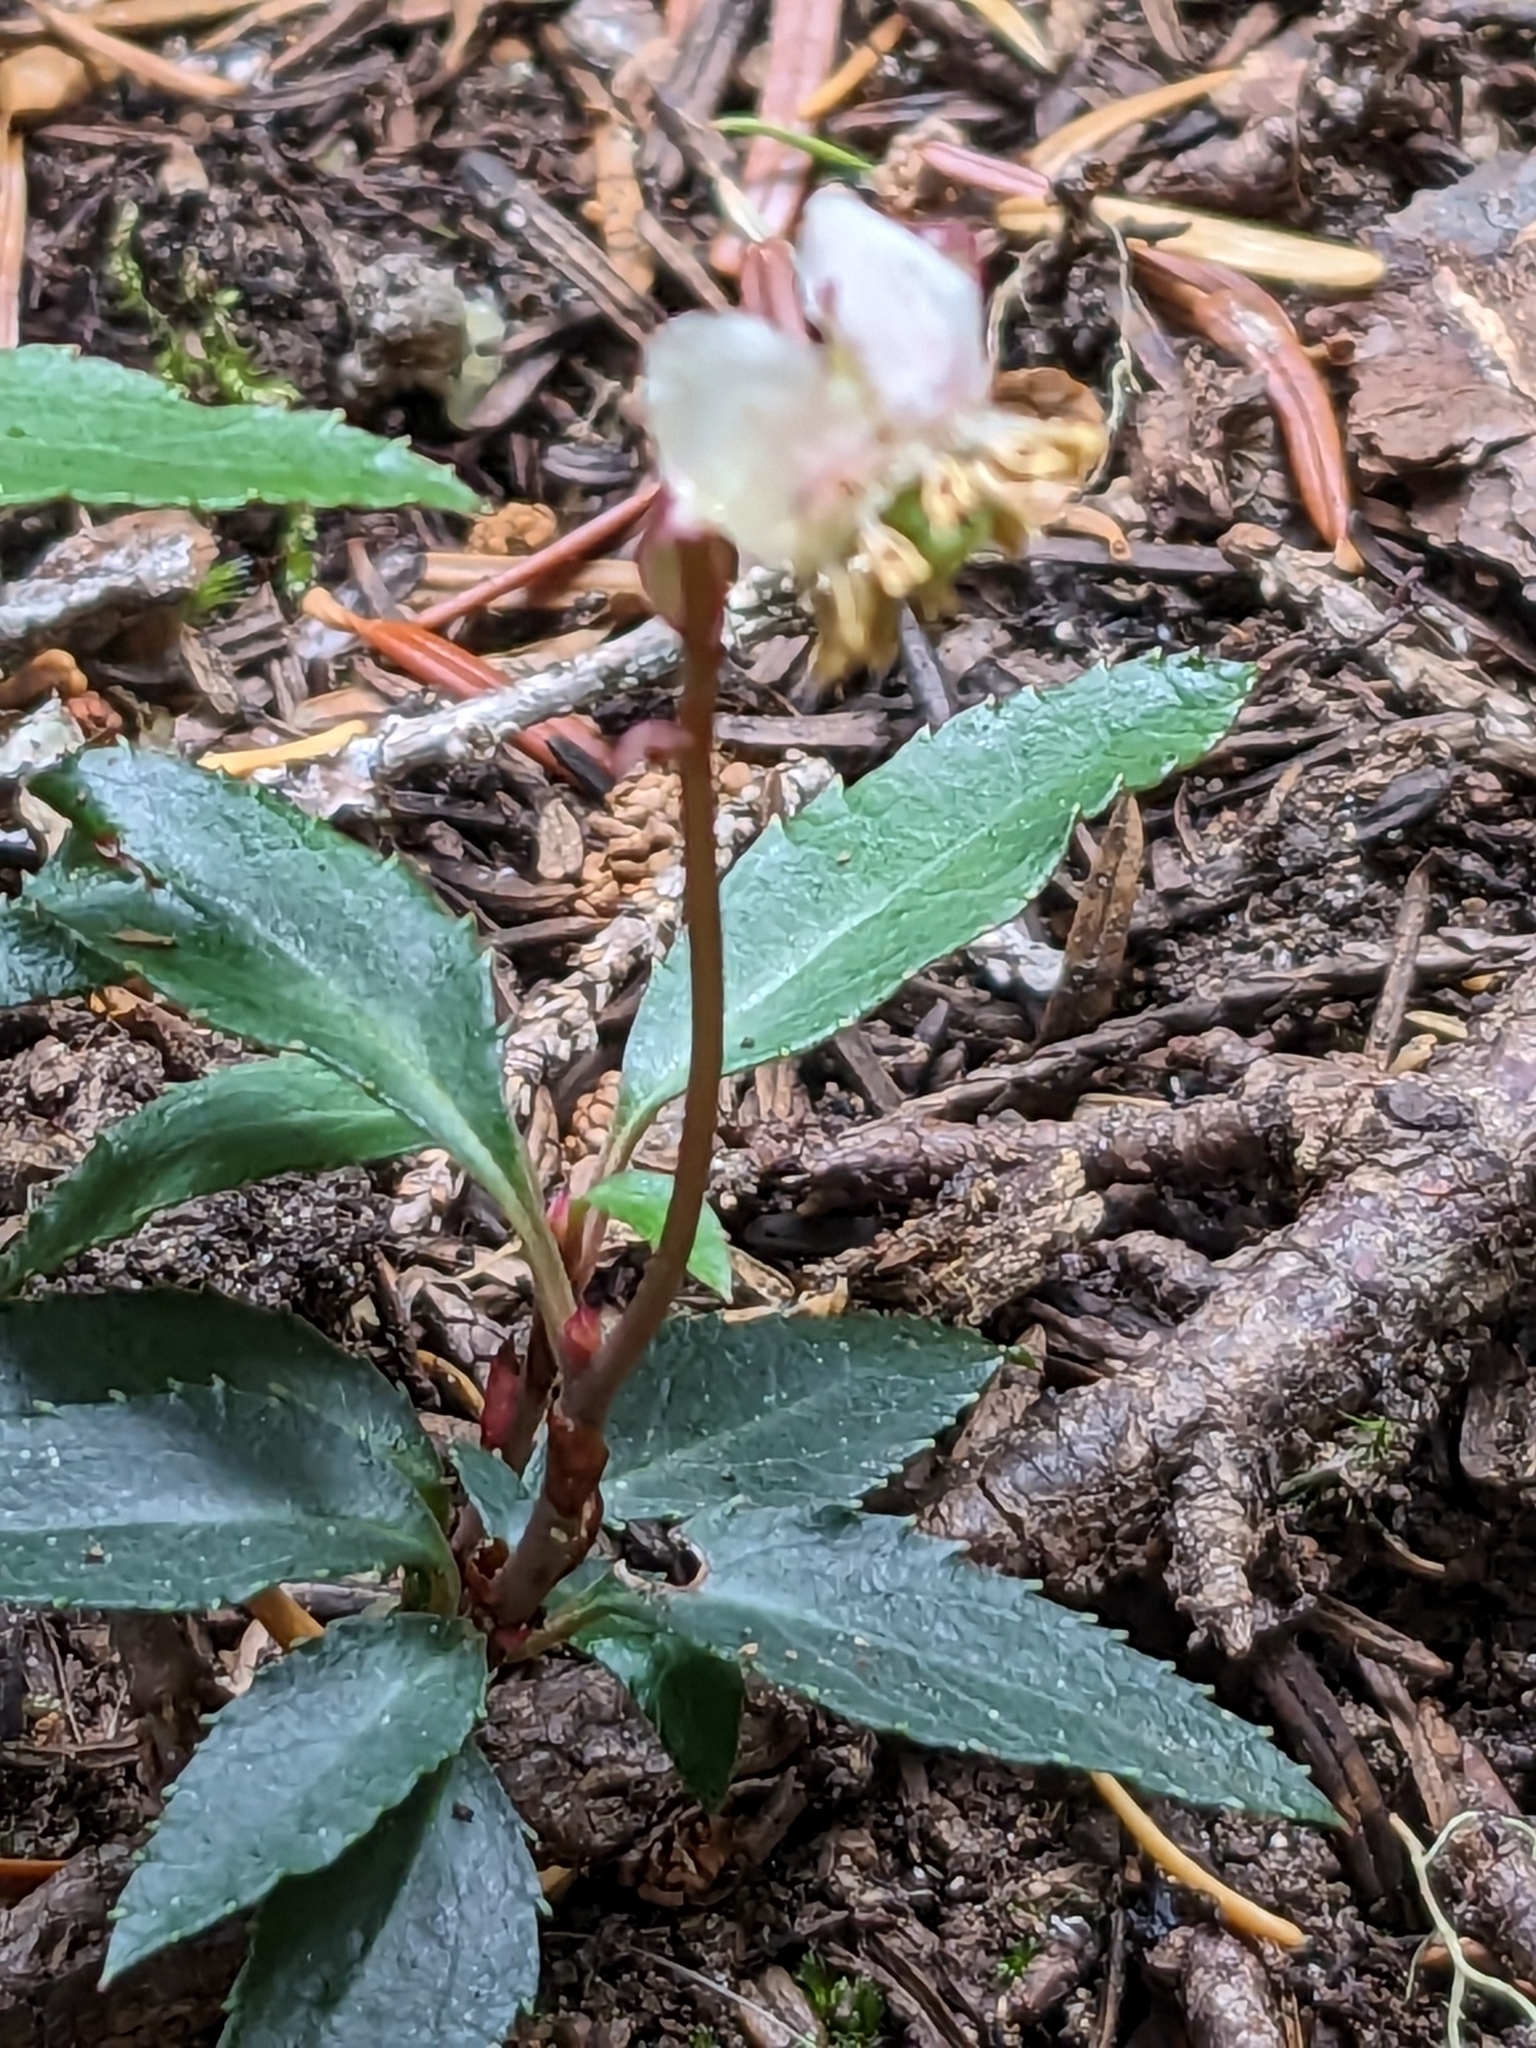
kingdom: Plantae
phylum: Tracheophyta
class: Magnoliopsida
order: Ericales
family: Ericaceae
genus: Chimaphila
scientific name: Chimaphila menziesii
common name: Menzies' pipsissewa
